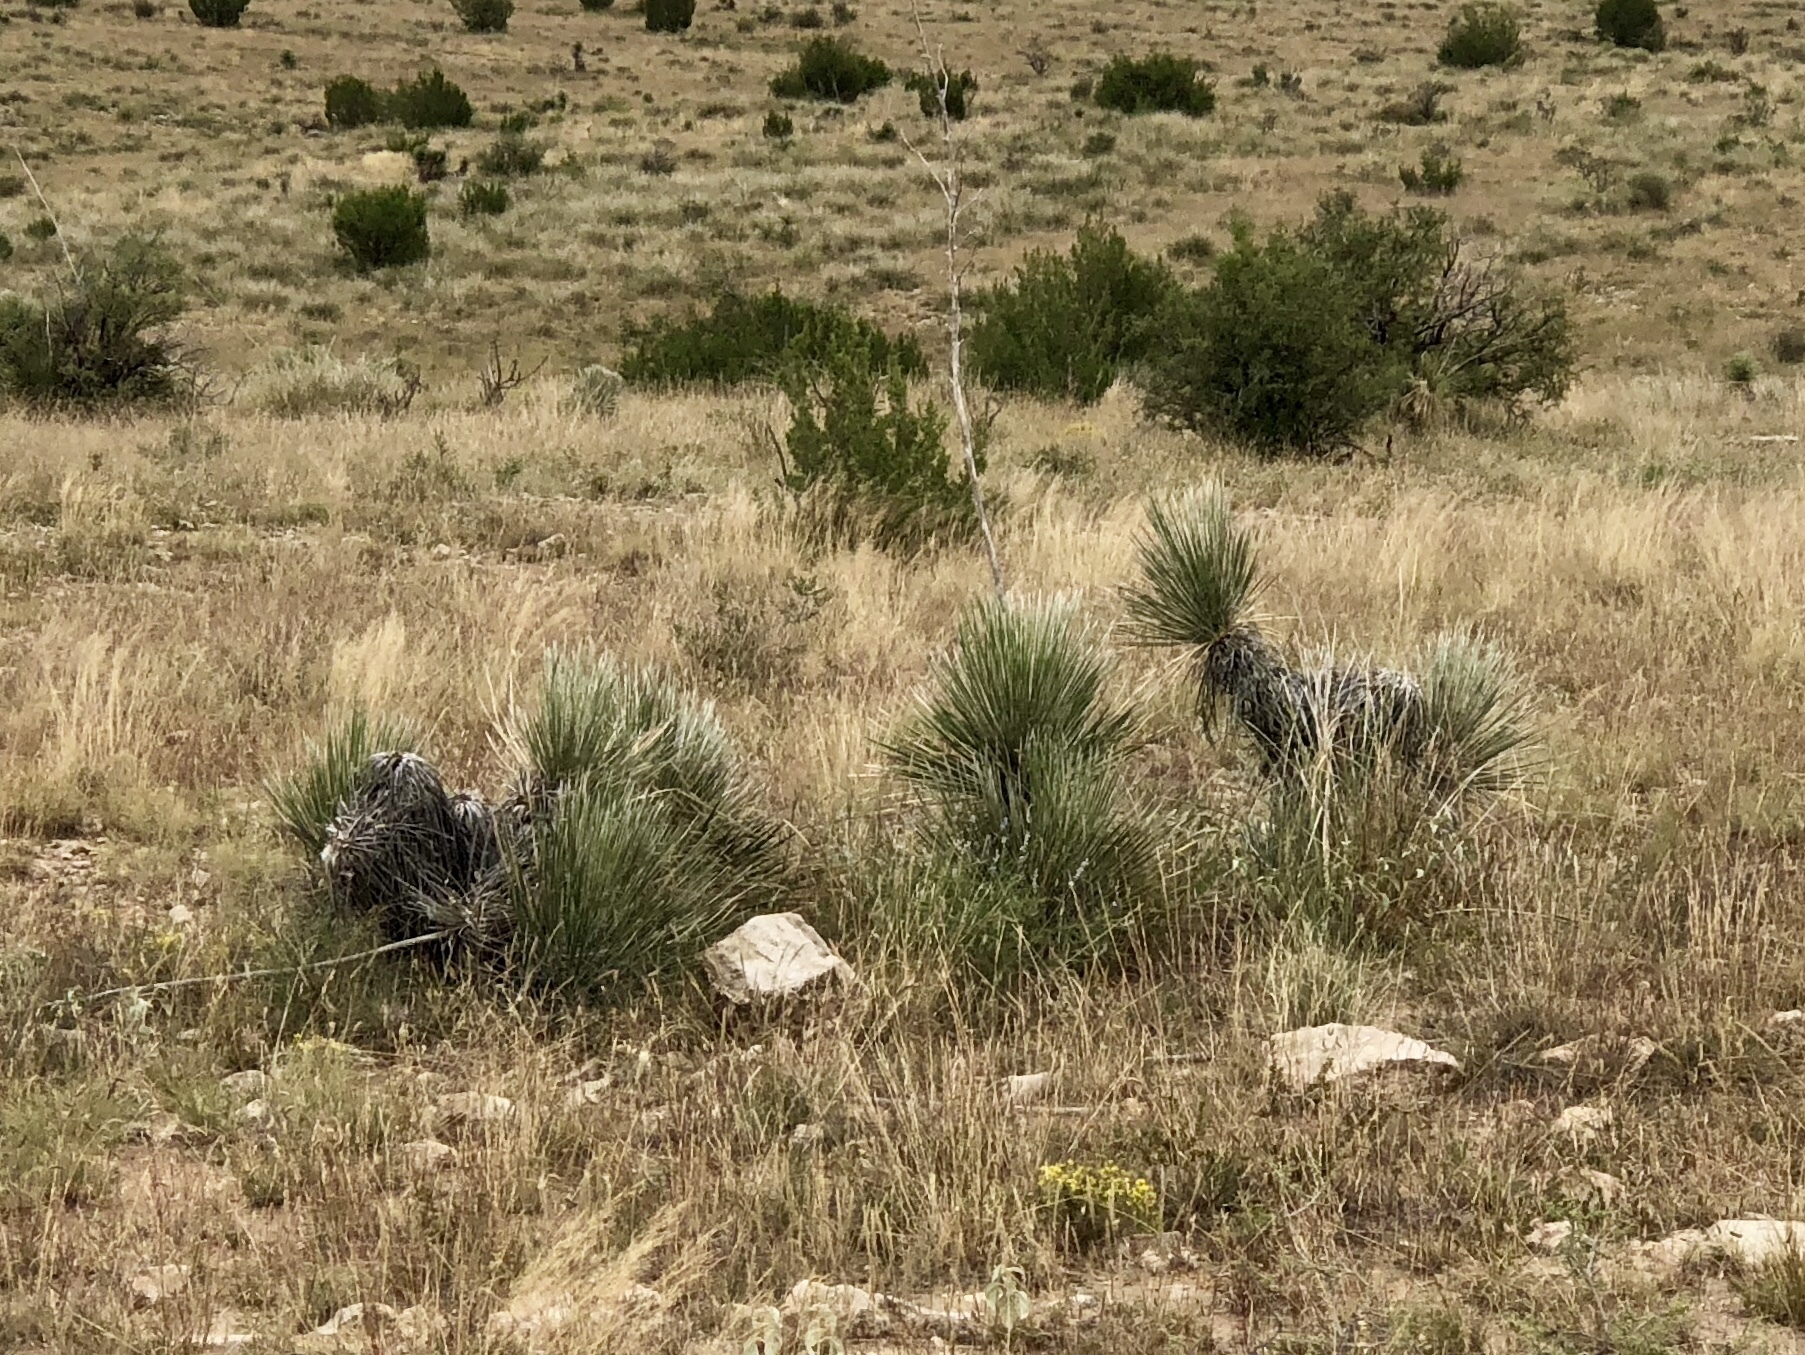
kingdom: Plantae
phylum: Tracheophyta
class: Liliopsida
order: Asparagales
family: Asparagaceae
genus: Yucca
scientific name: Yucca elata
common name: Palmella
